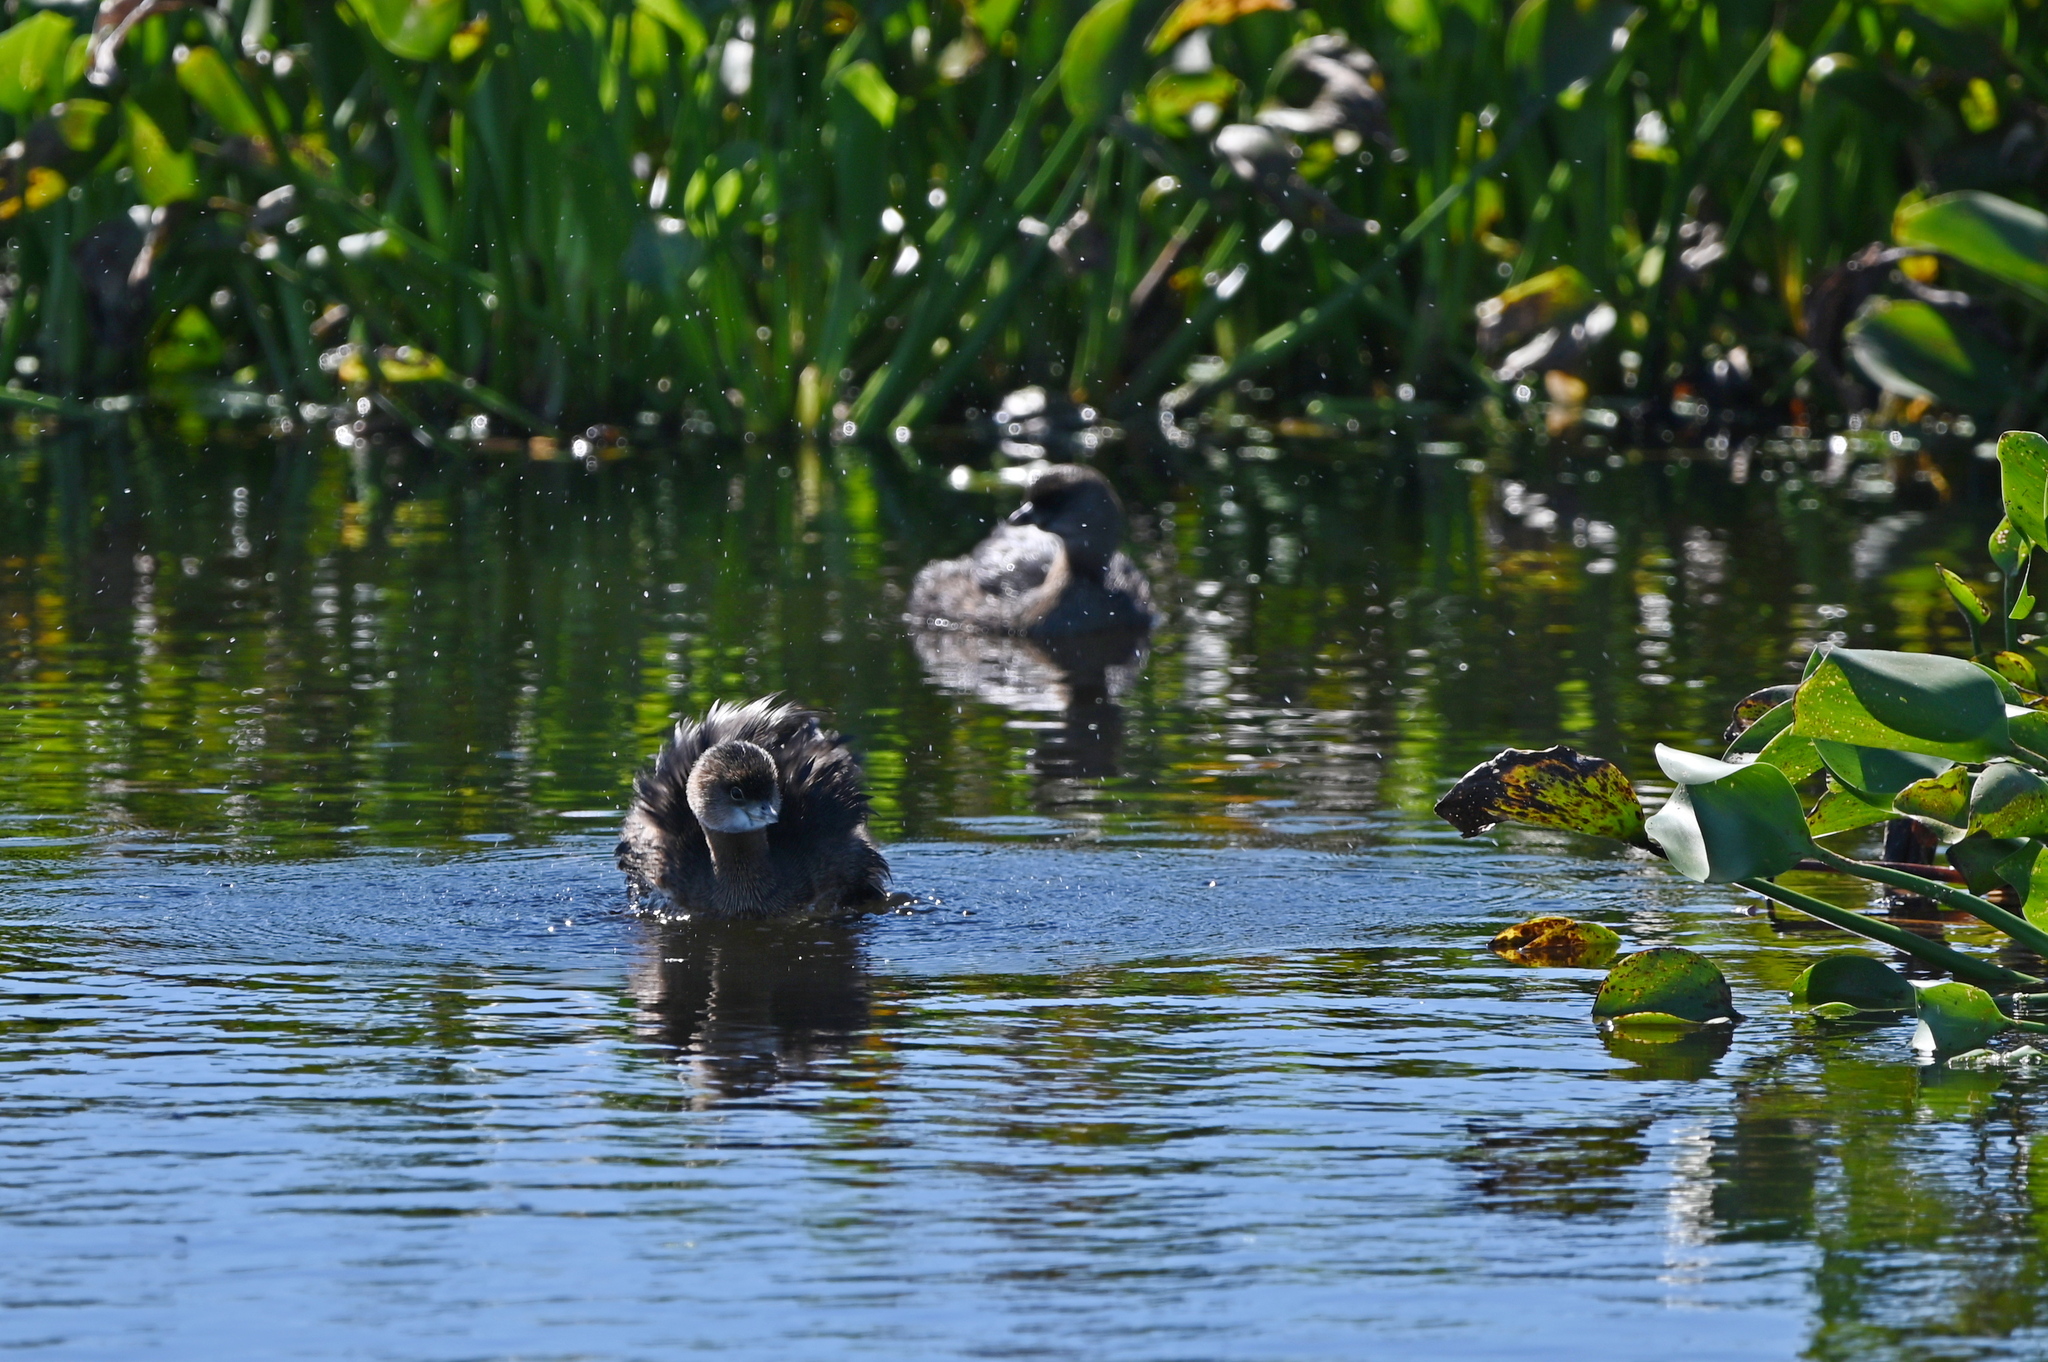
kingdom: Animalia
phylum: Chordata
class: Aves
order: Podicipediformes
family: Podicipedidae
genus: Podilymbus
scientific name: Podilymbus podiceps
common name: Pied-billed grebe
